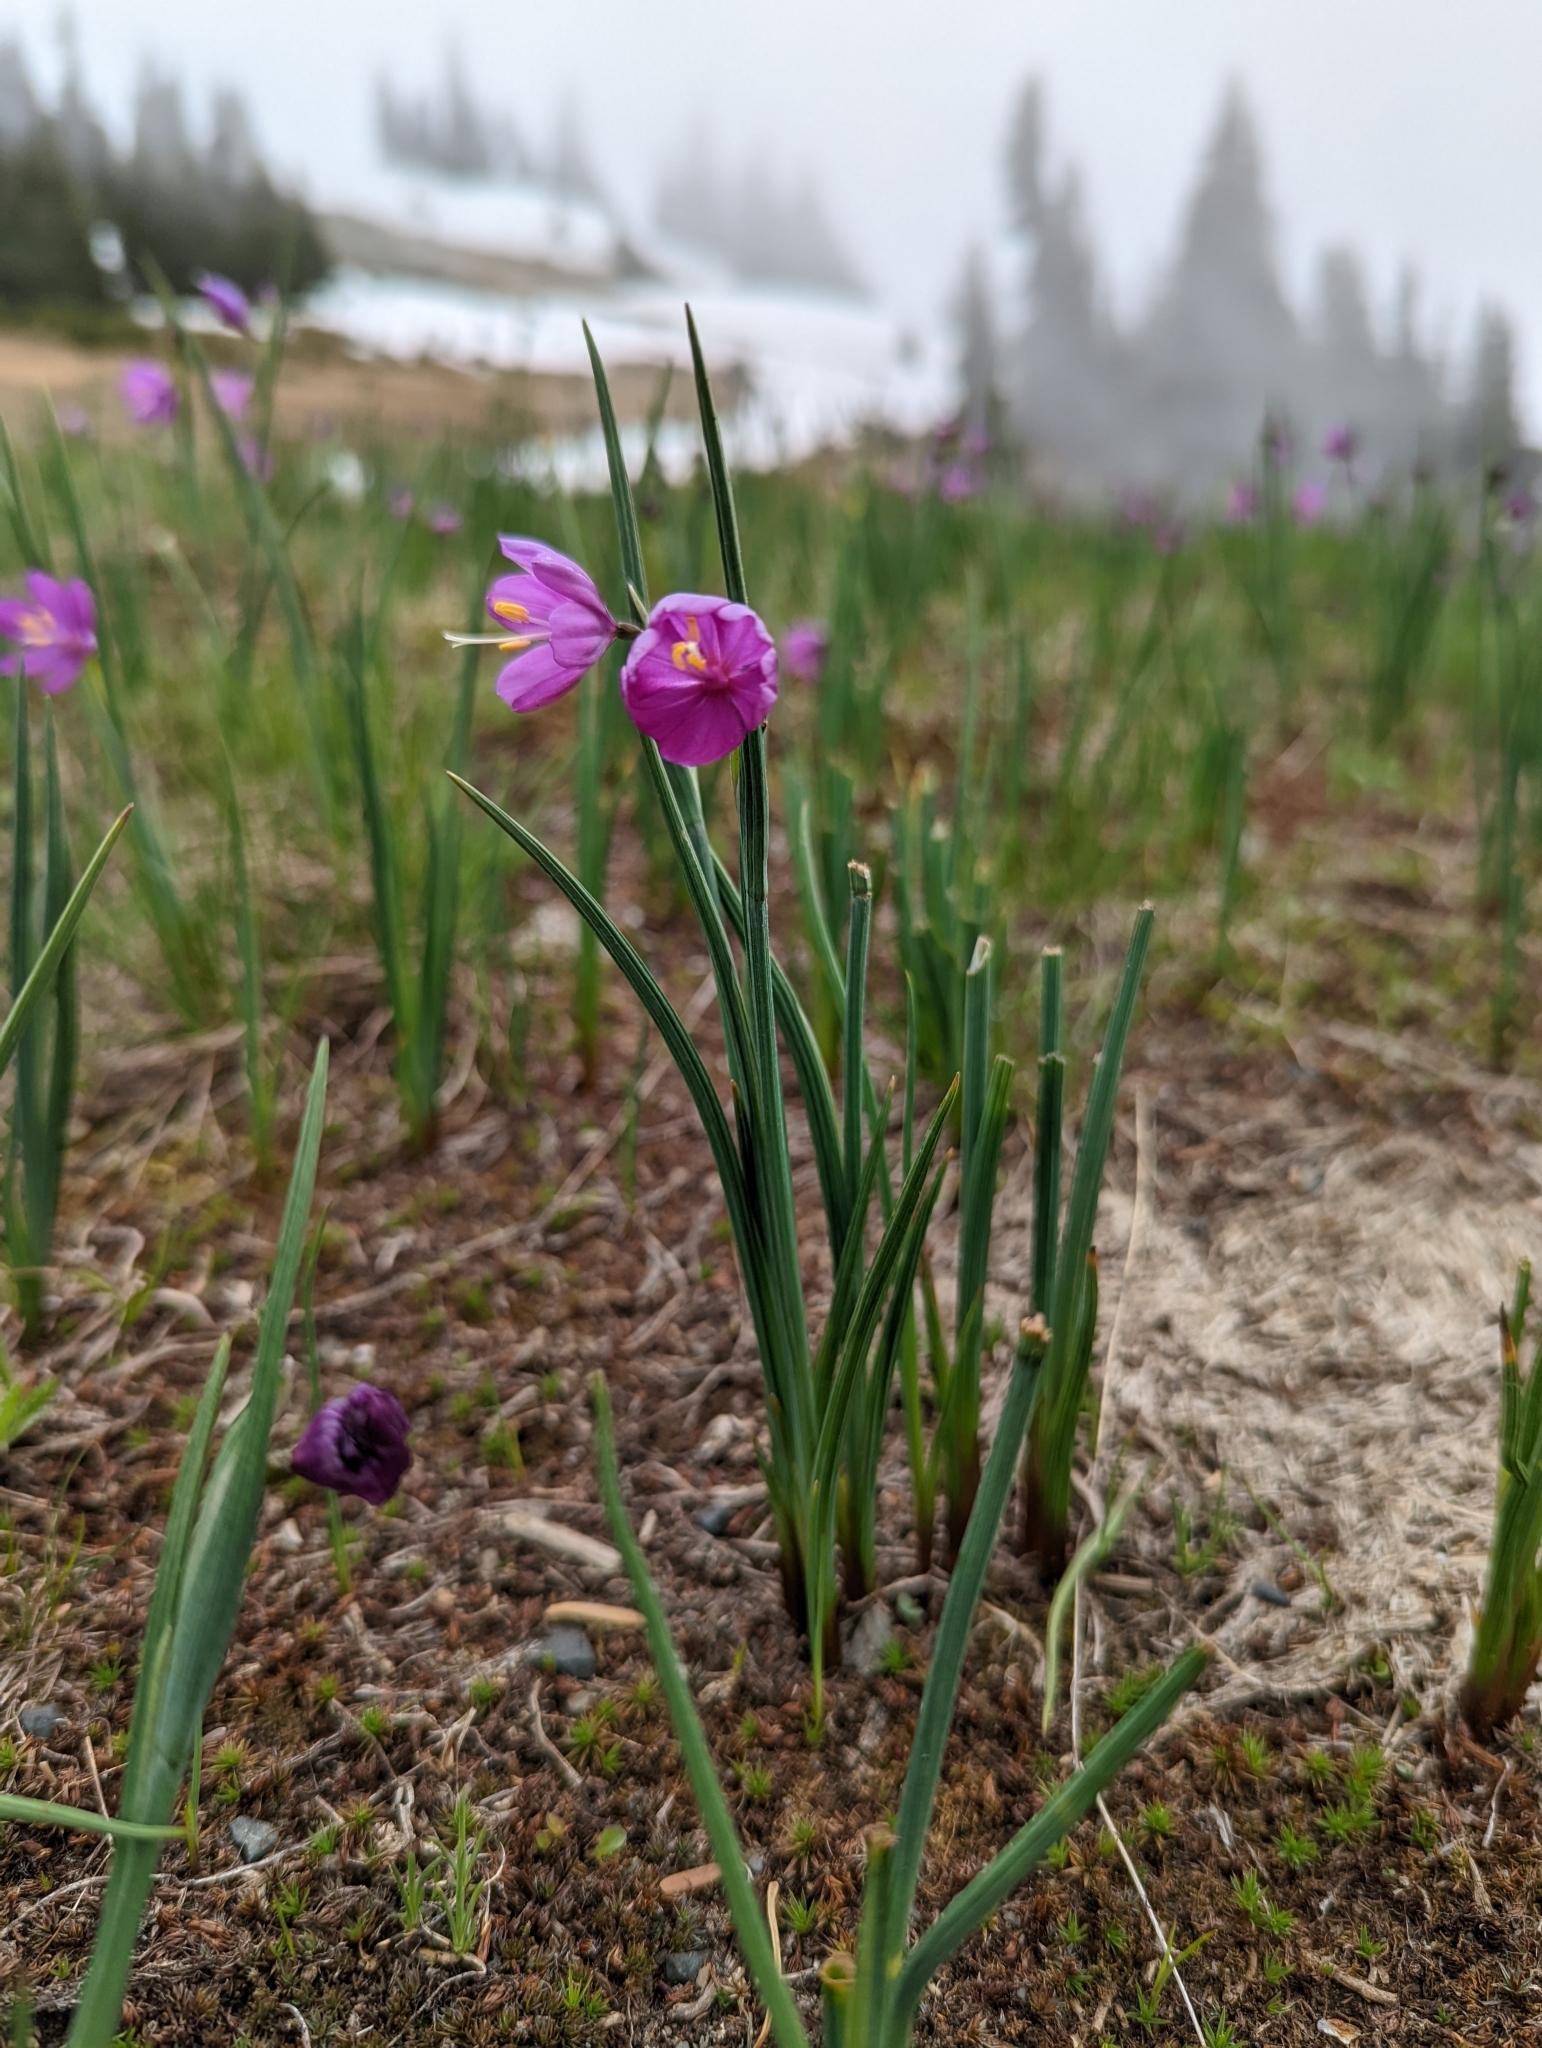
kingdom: Plantae
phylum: Tracheophyta
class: Liliopsida
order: Asparagales
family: Iridaceae
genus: Olsynium
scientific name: Olsynium douglasii
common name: Douglas' grasswidow
